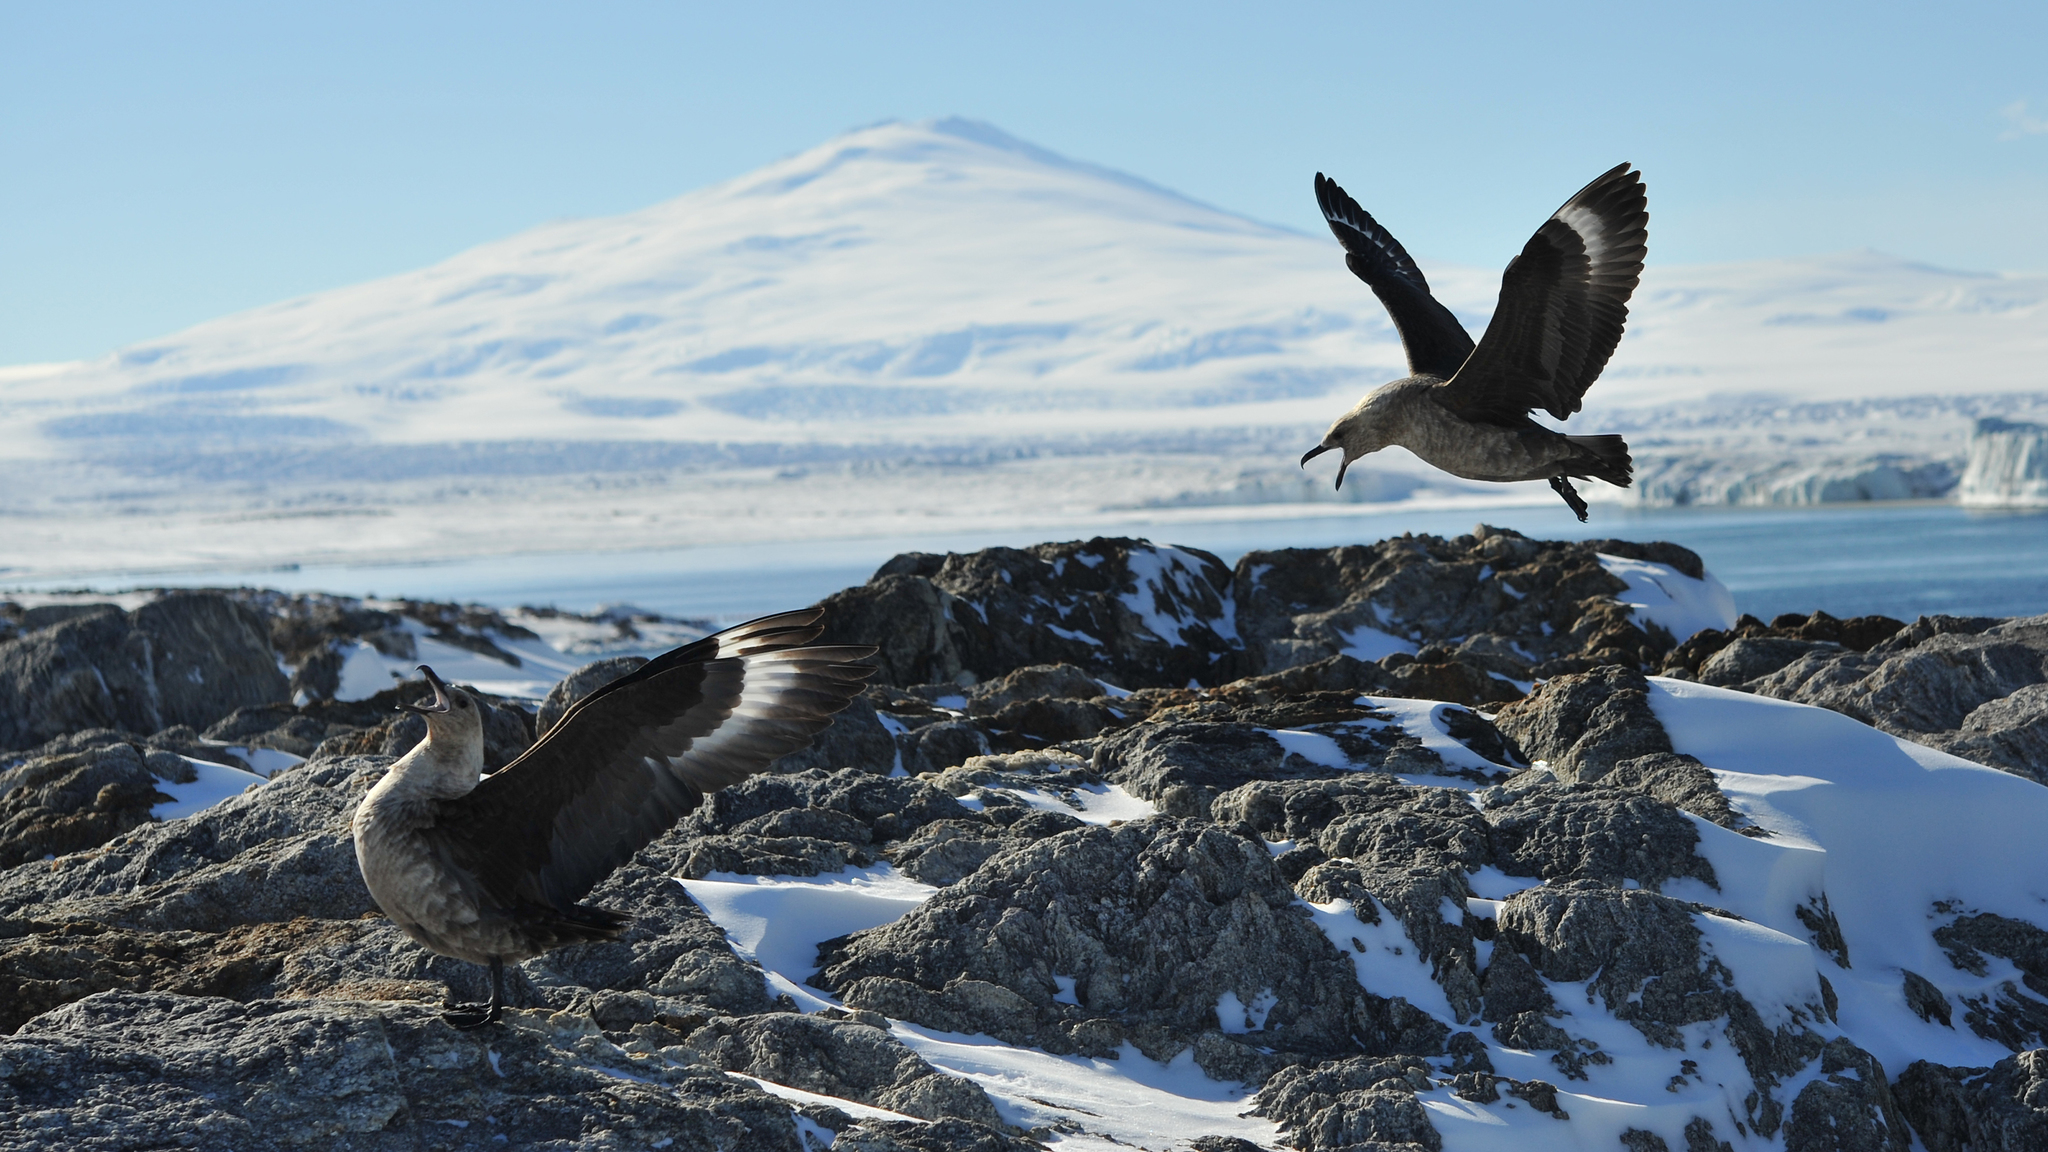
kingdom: Animalia
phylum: Chordata
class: Aves
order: Charadriiformes
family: Stercorariidae
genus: Stercorarius
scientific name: Stercorarius maccormicki
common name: South polar skua
